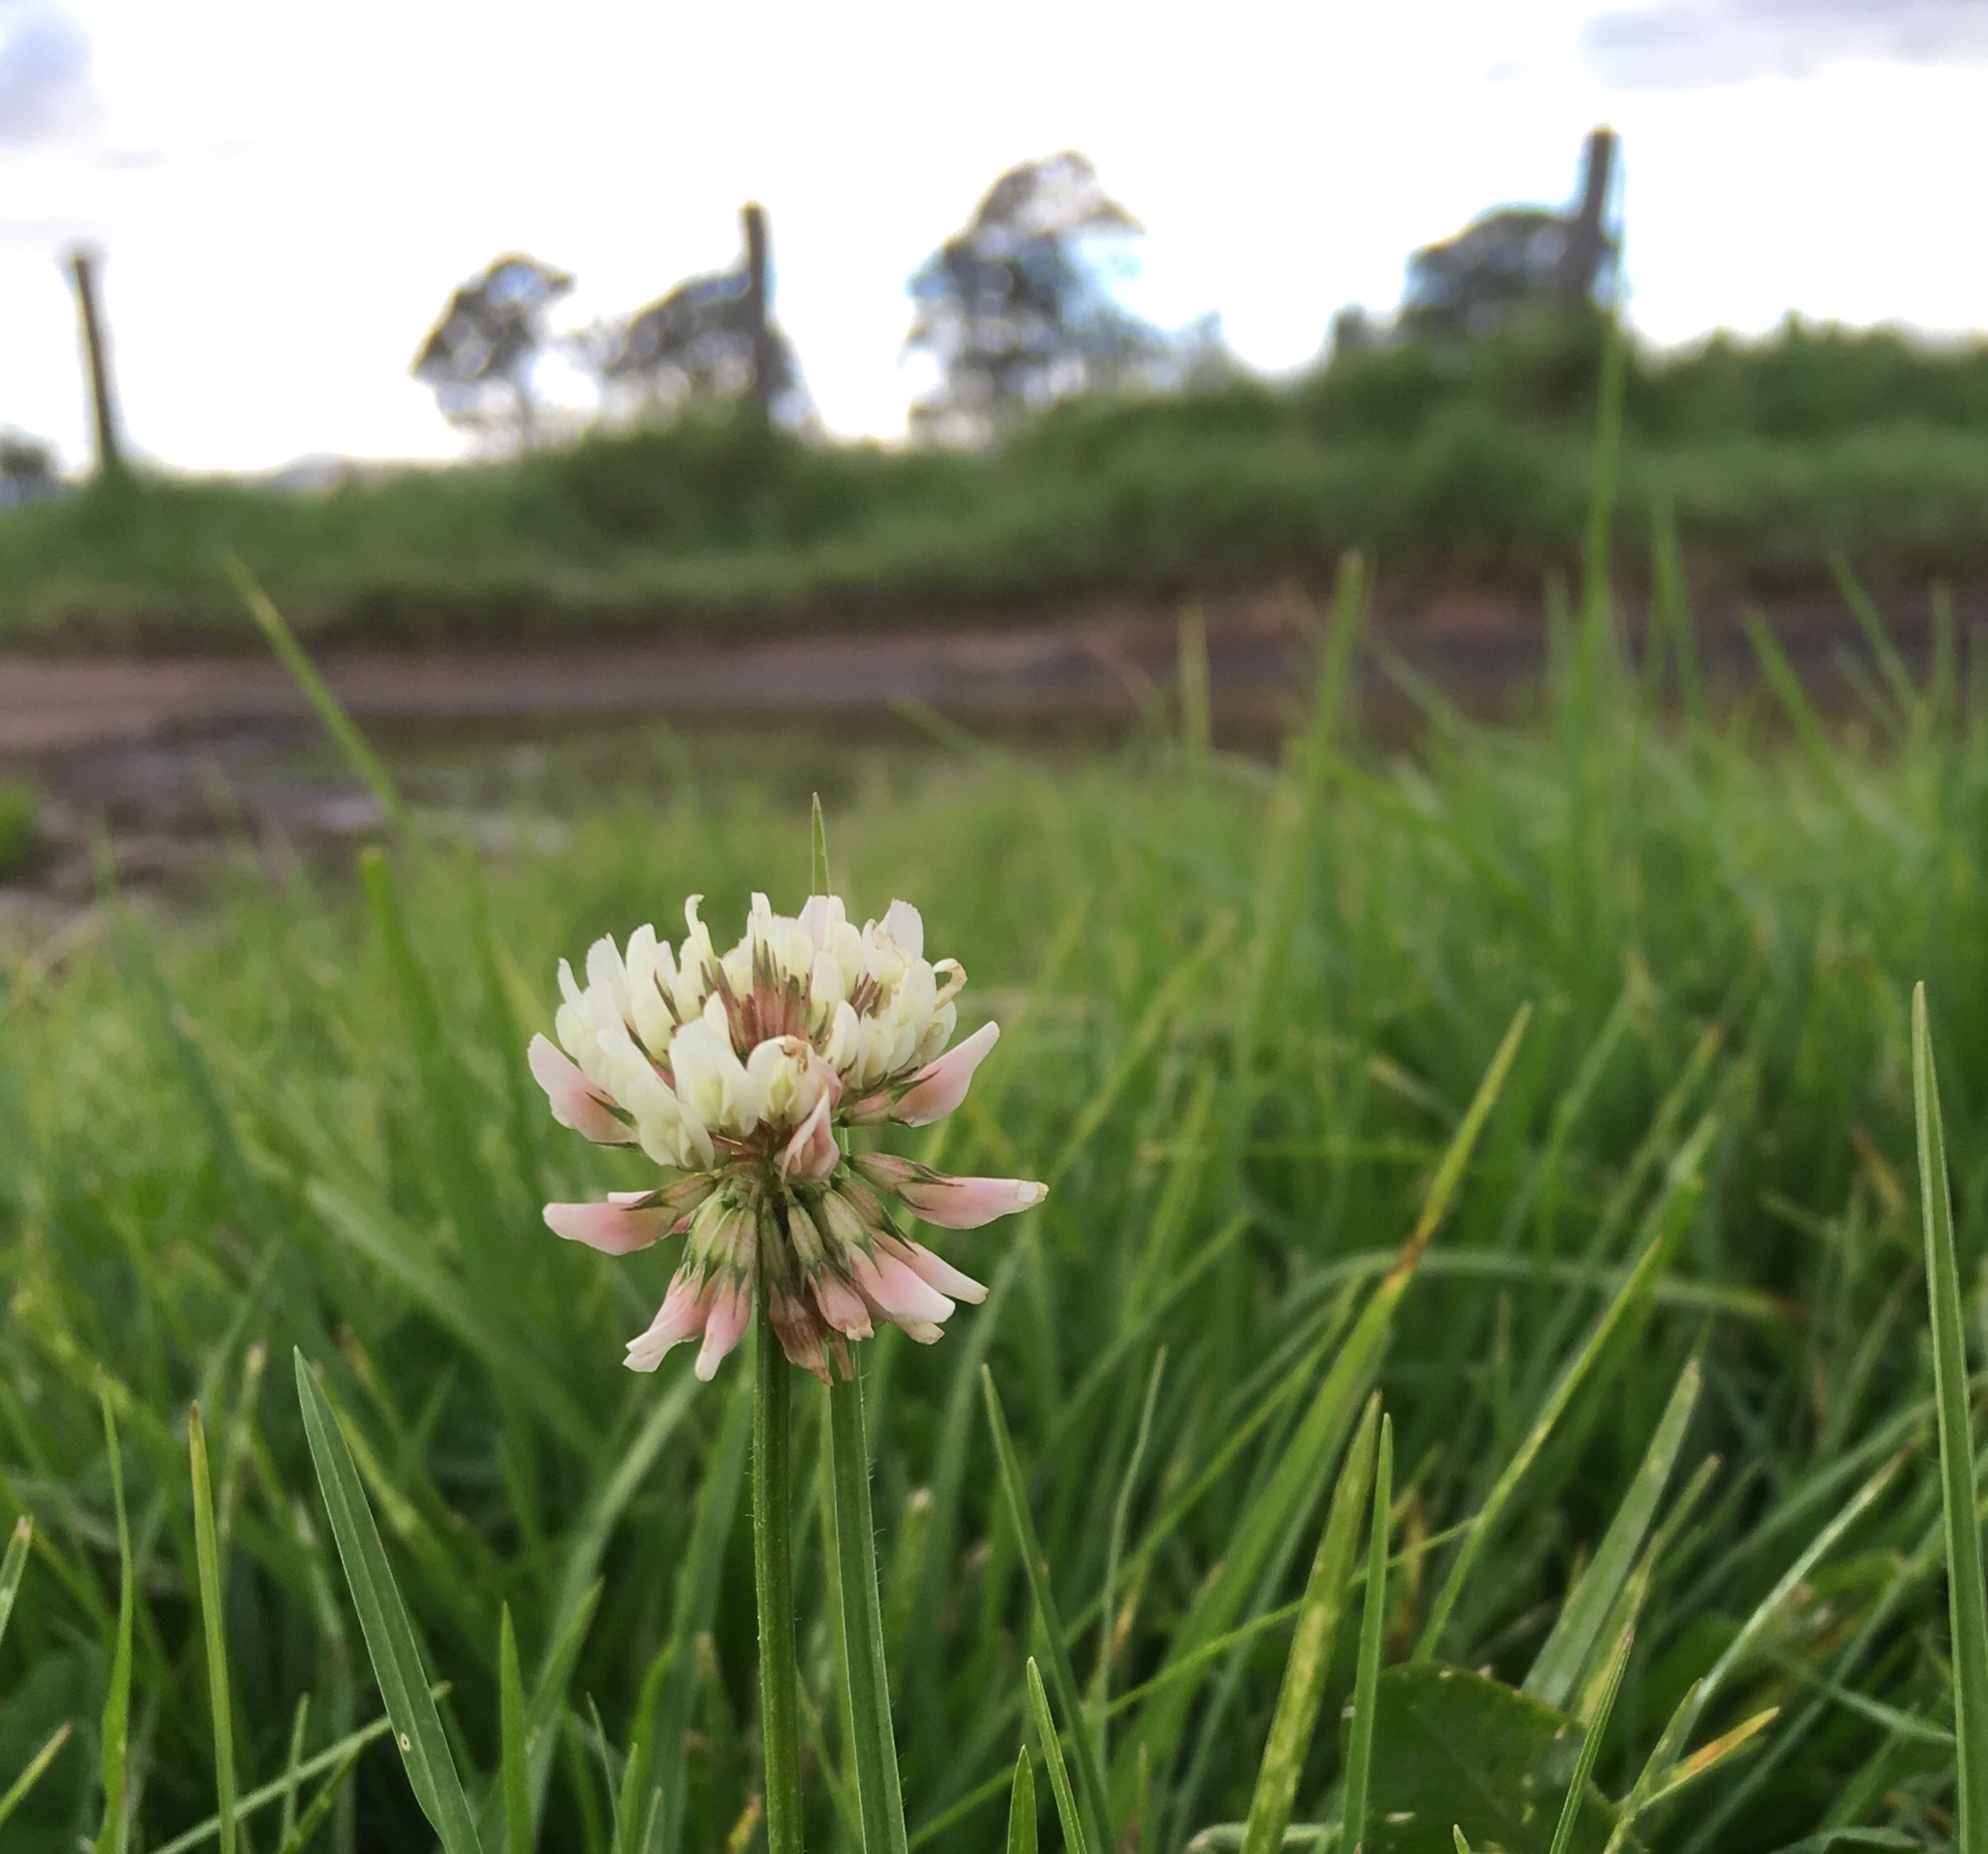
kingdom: Plantae
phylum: Tracheophyta
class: Magnoliopsida
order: Fabales
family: Fabaceae
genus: Trifolium
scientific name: Trifolium repens
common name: White clover
